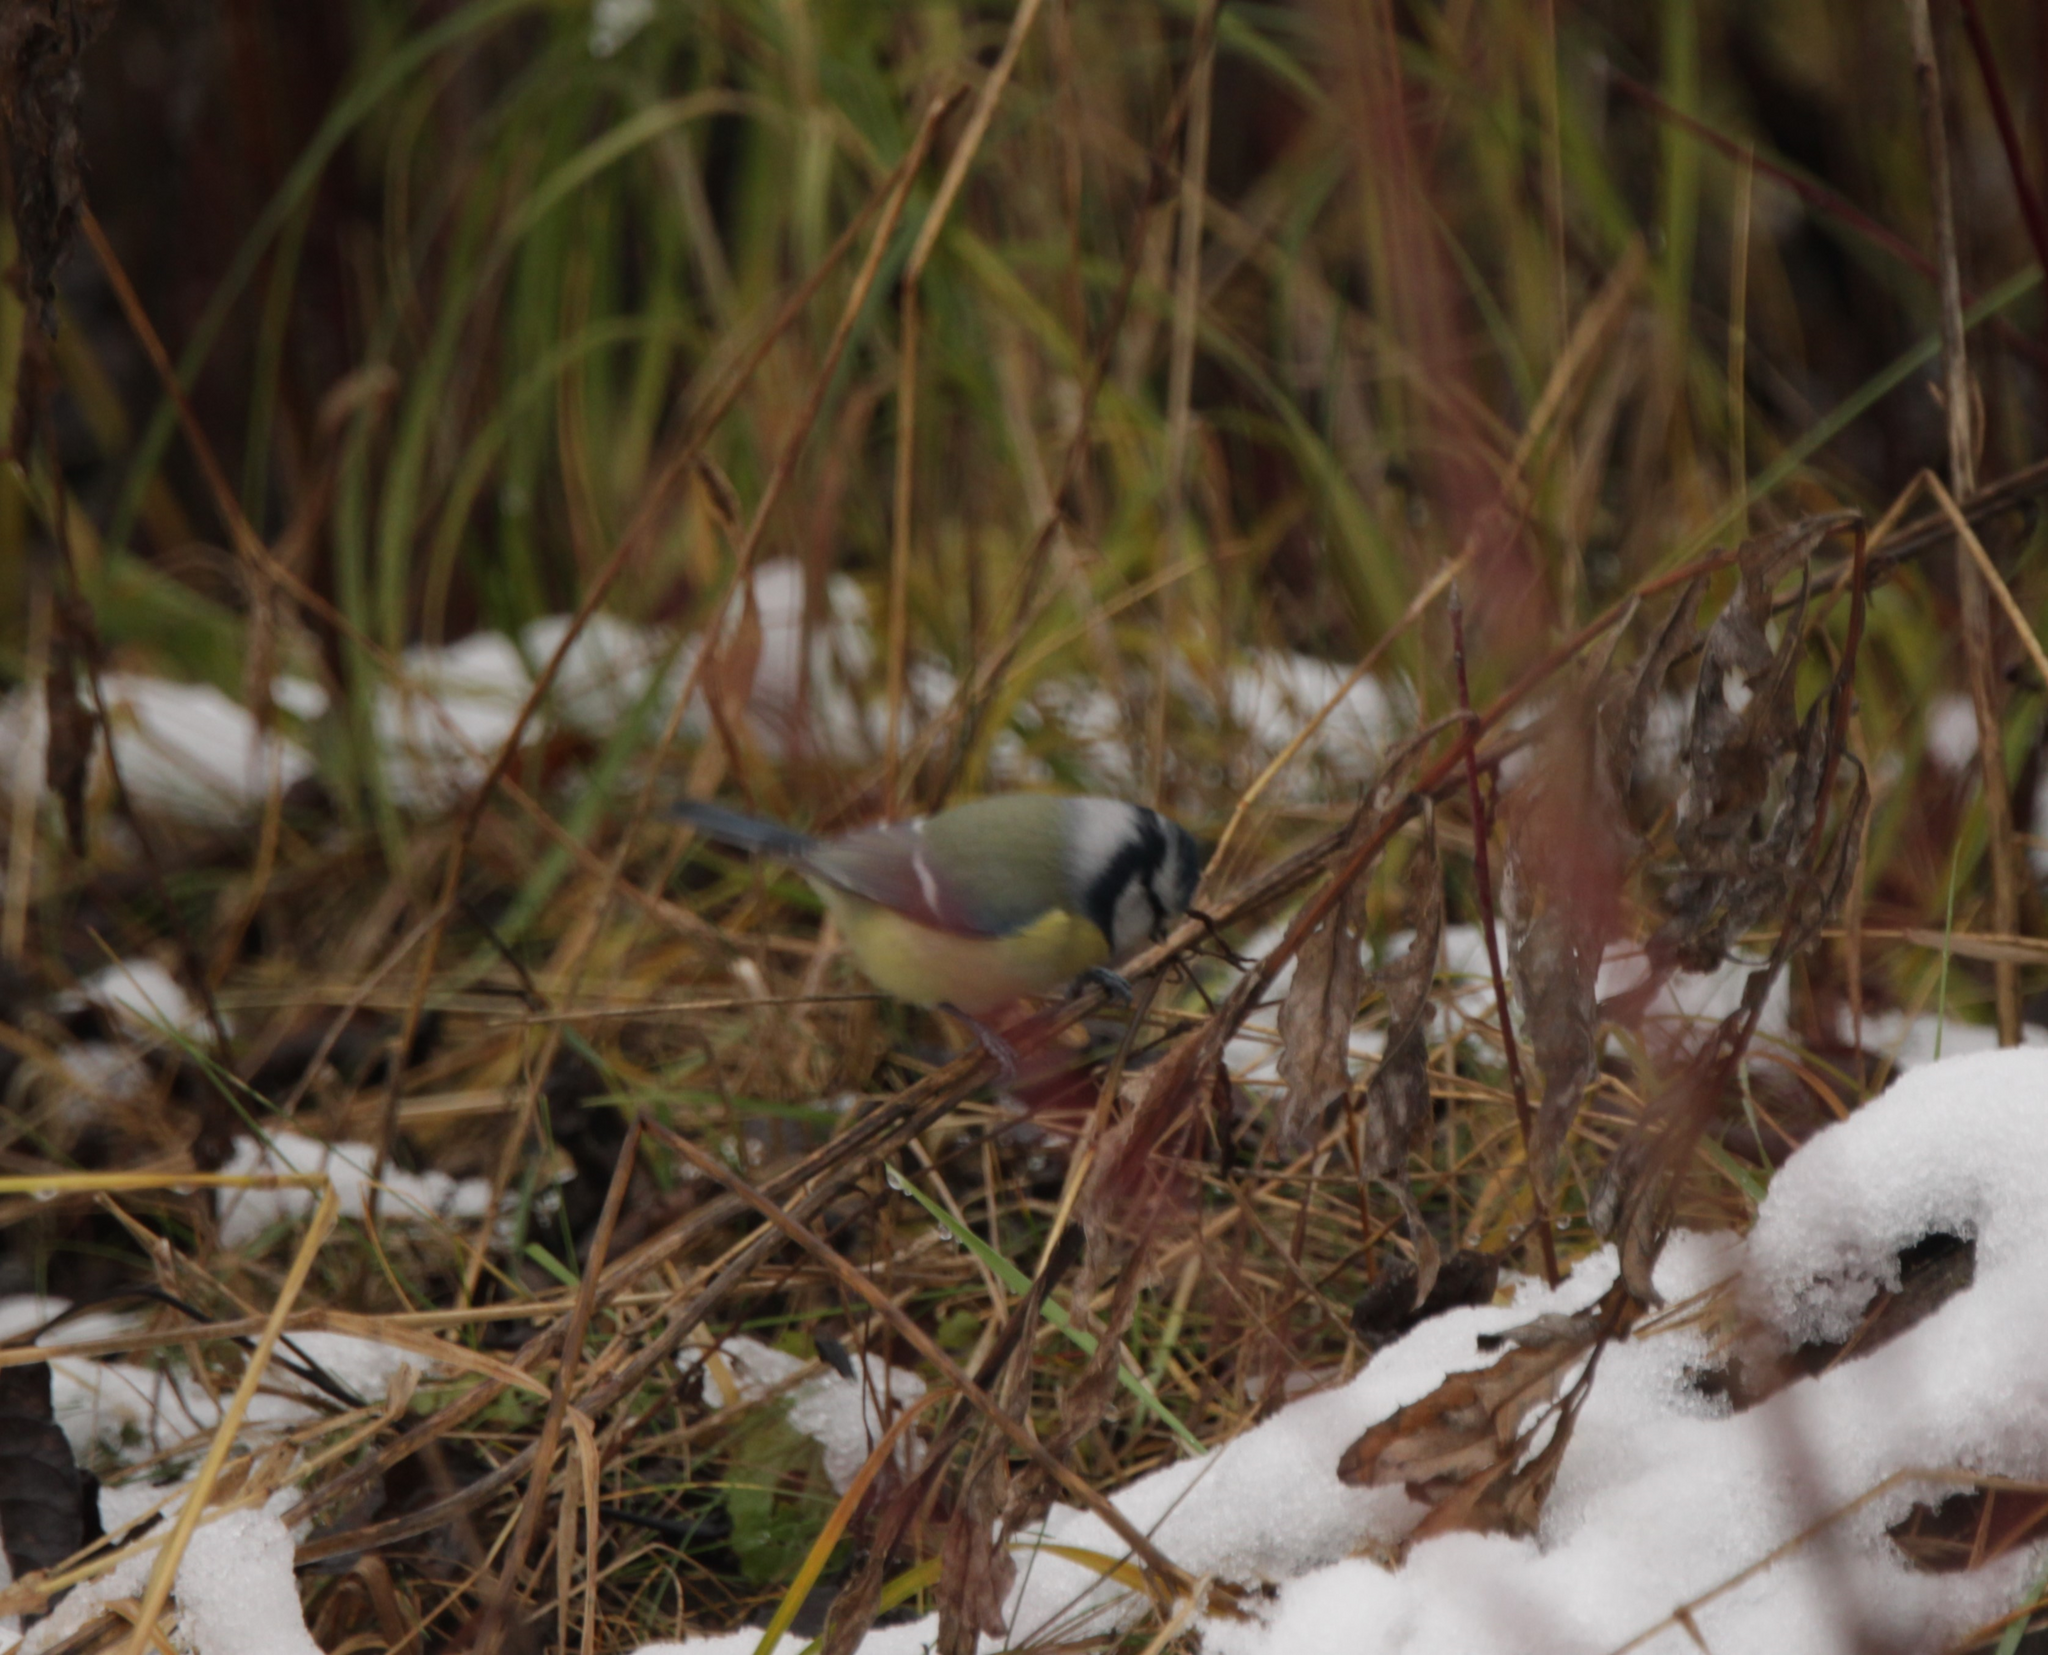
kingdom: Animalia
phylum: Chordata
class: Aves
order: Passeriformes
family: Paridae
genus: Cyanistes
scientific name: Cyanistes caeruleus
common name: Eurasian blue tit
